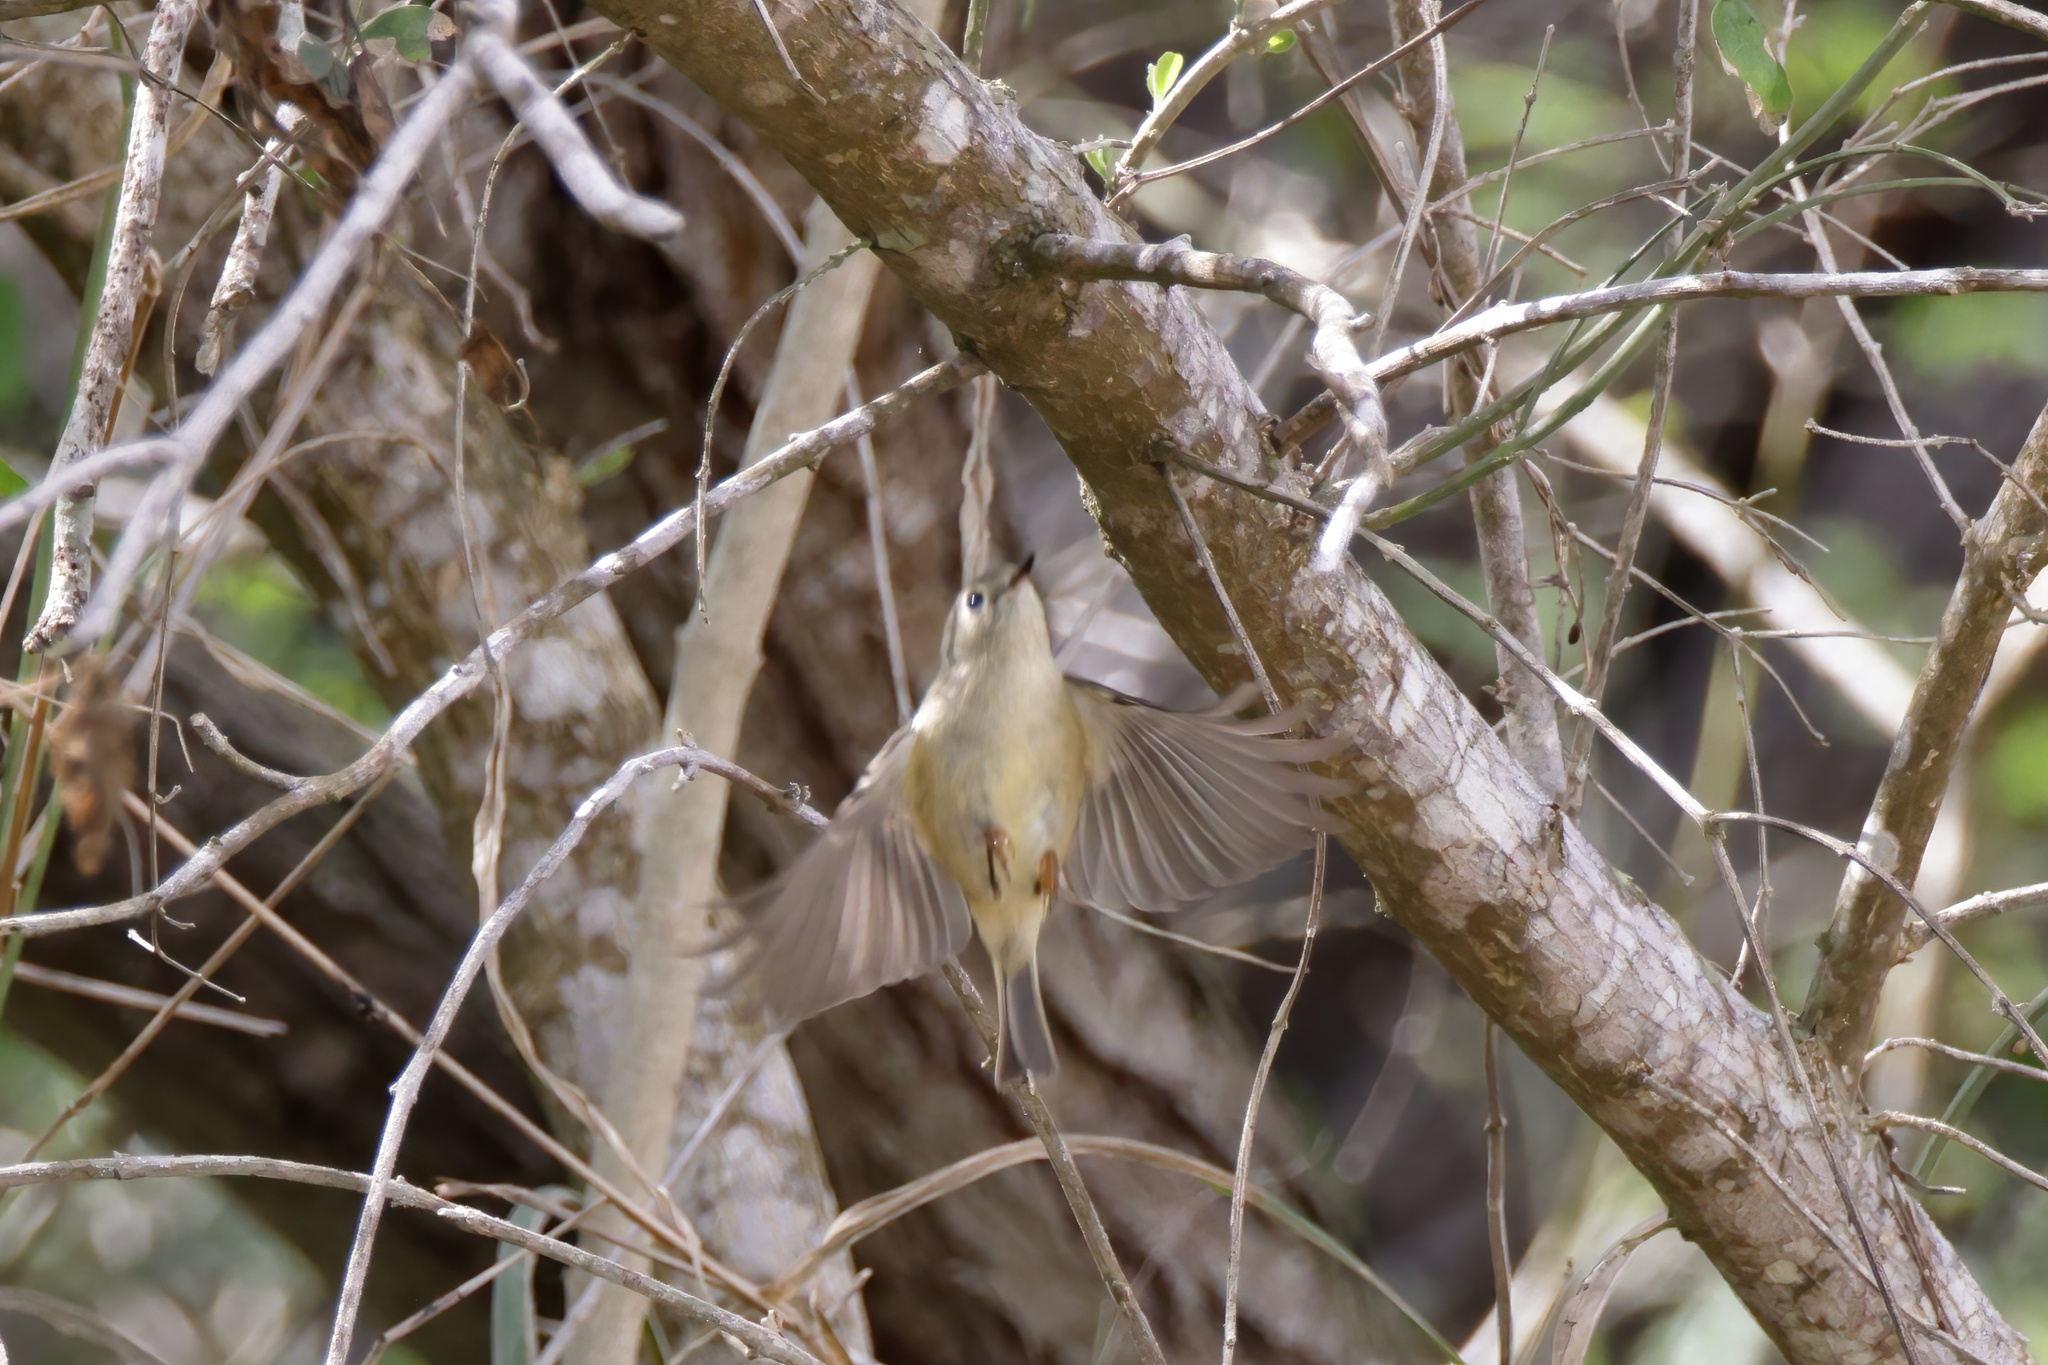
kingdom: Animalia
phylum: Chordata
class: Aves
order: Passeriformes
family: Regulidae
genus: Regulus
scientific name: Regulus calendula
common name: Ruby-crowned kinglet
